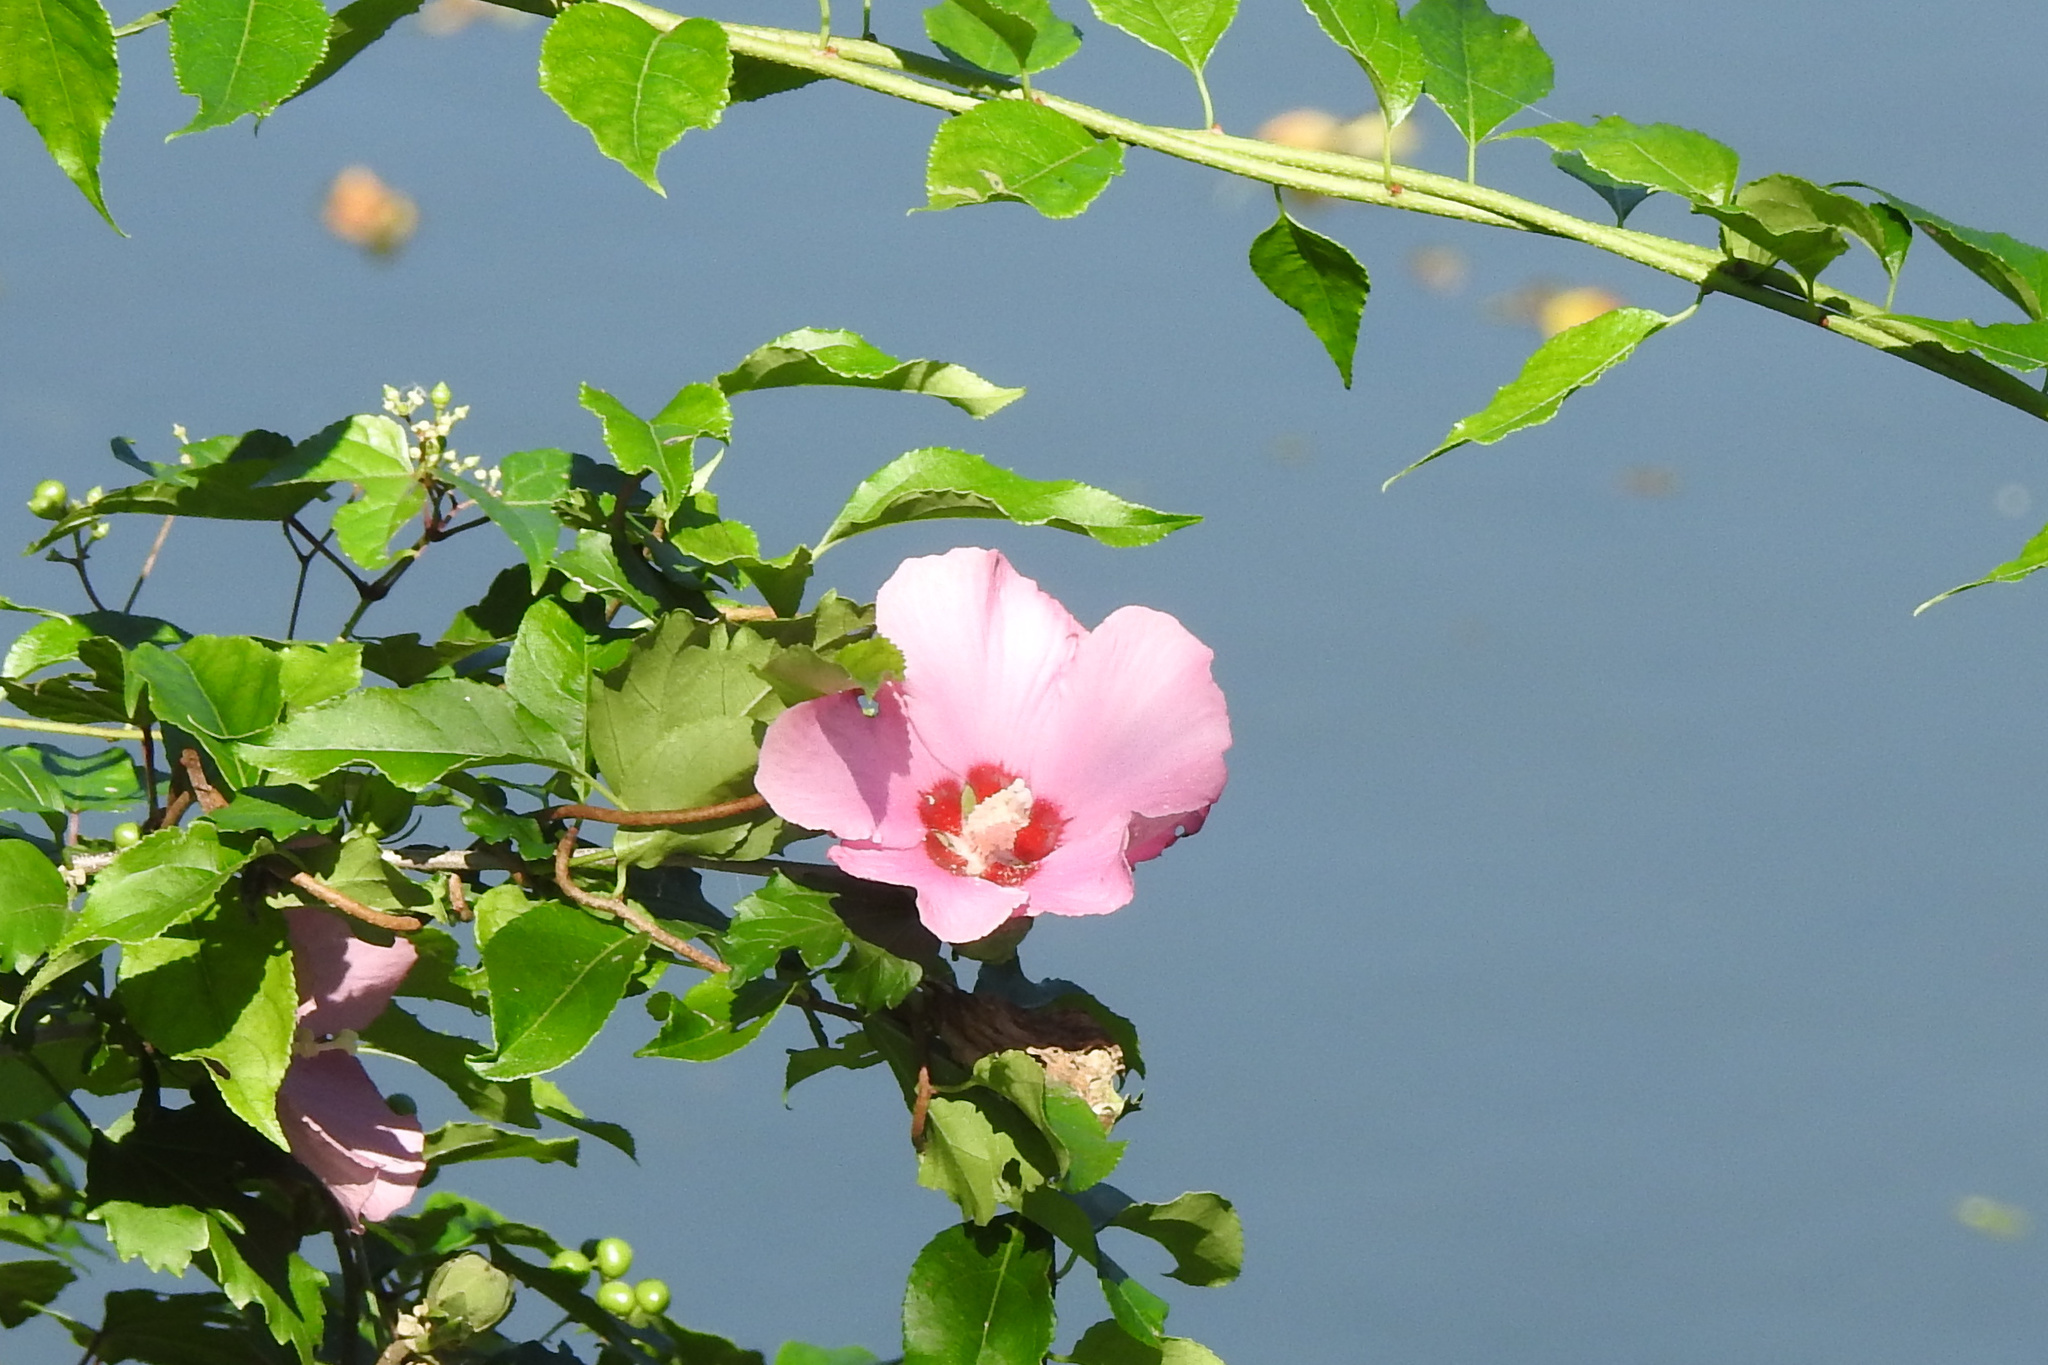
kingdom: Plantae
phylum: Tracheophyta
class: Magnoliopsida
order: Malvales
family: Malvaceae
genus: Hibiscus
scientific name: Hibiscus syriacus
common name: Syrian ketmia
